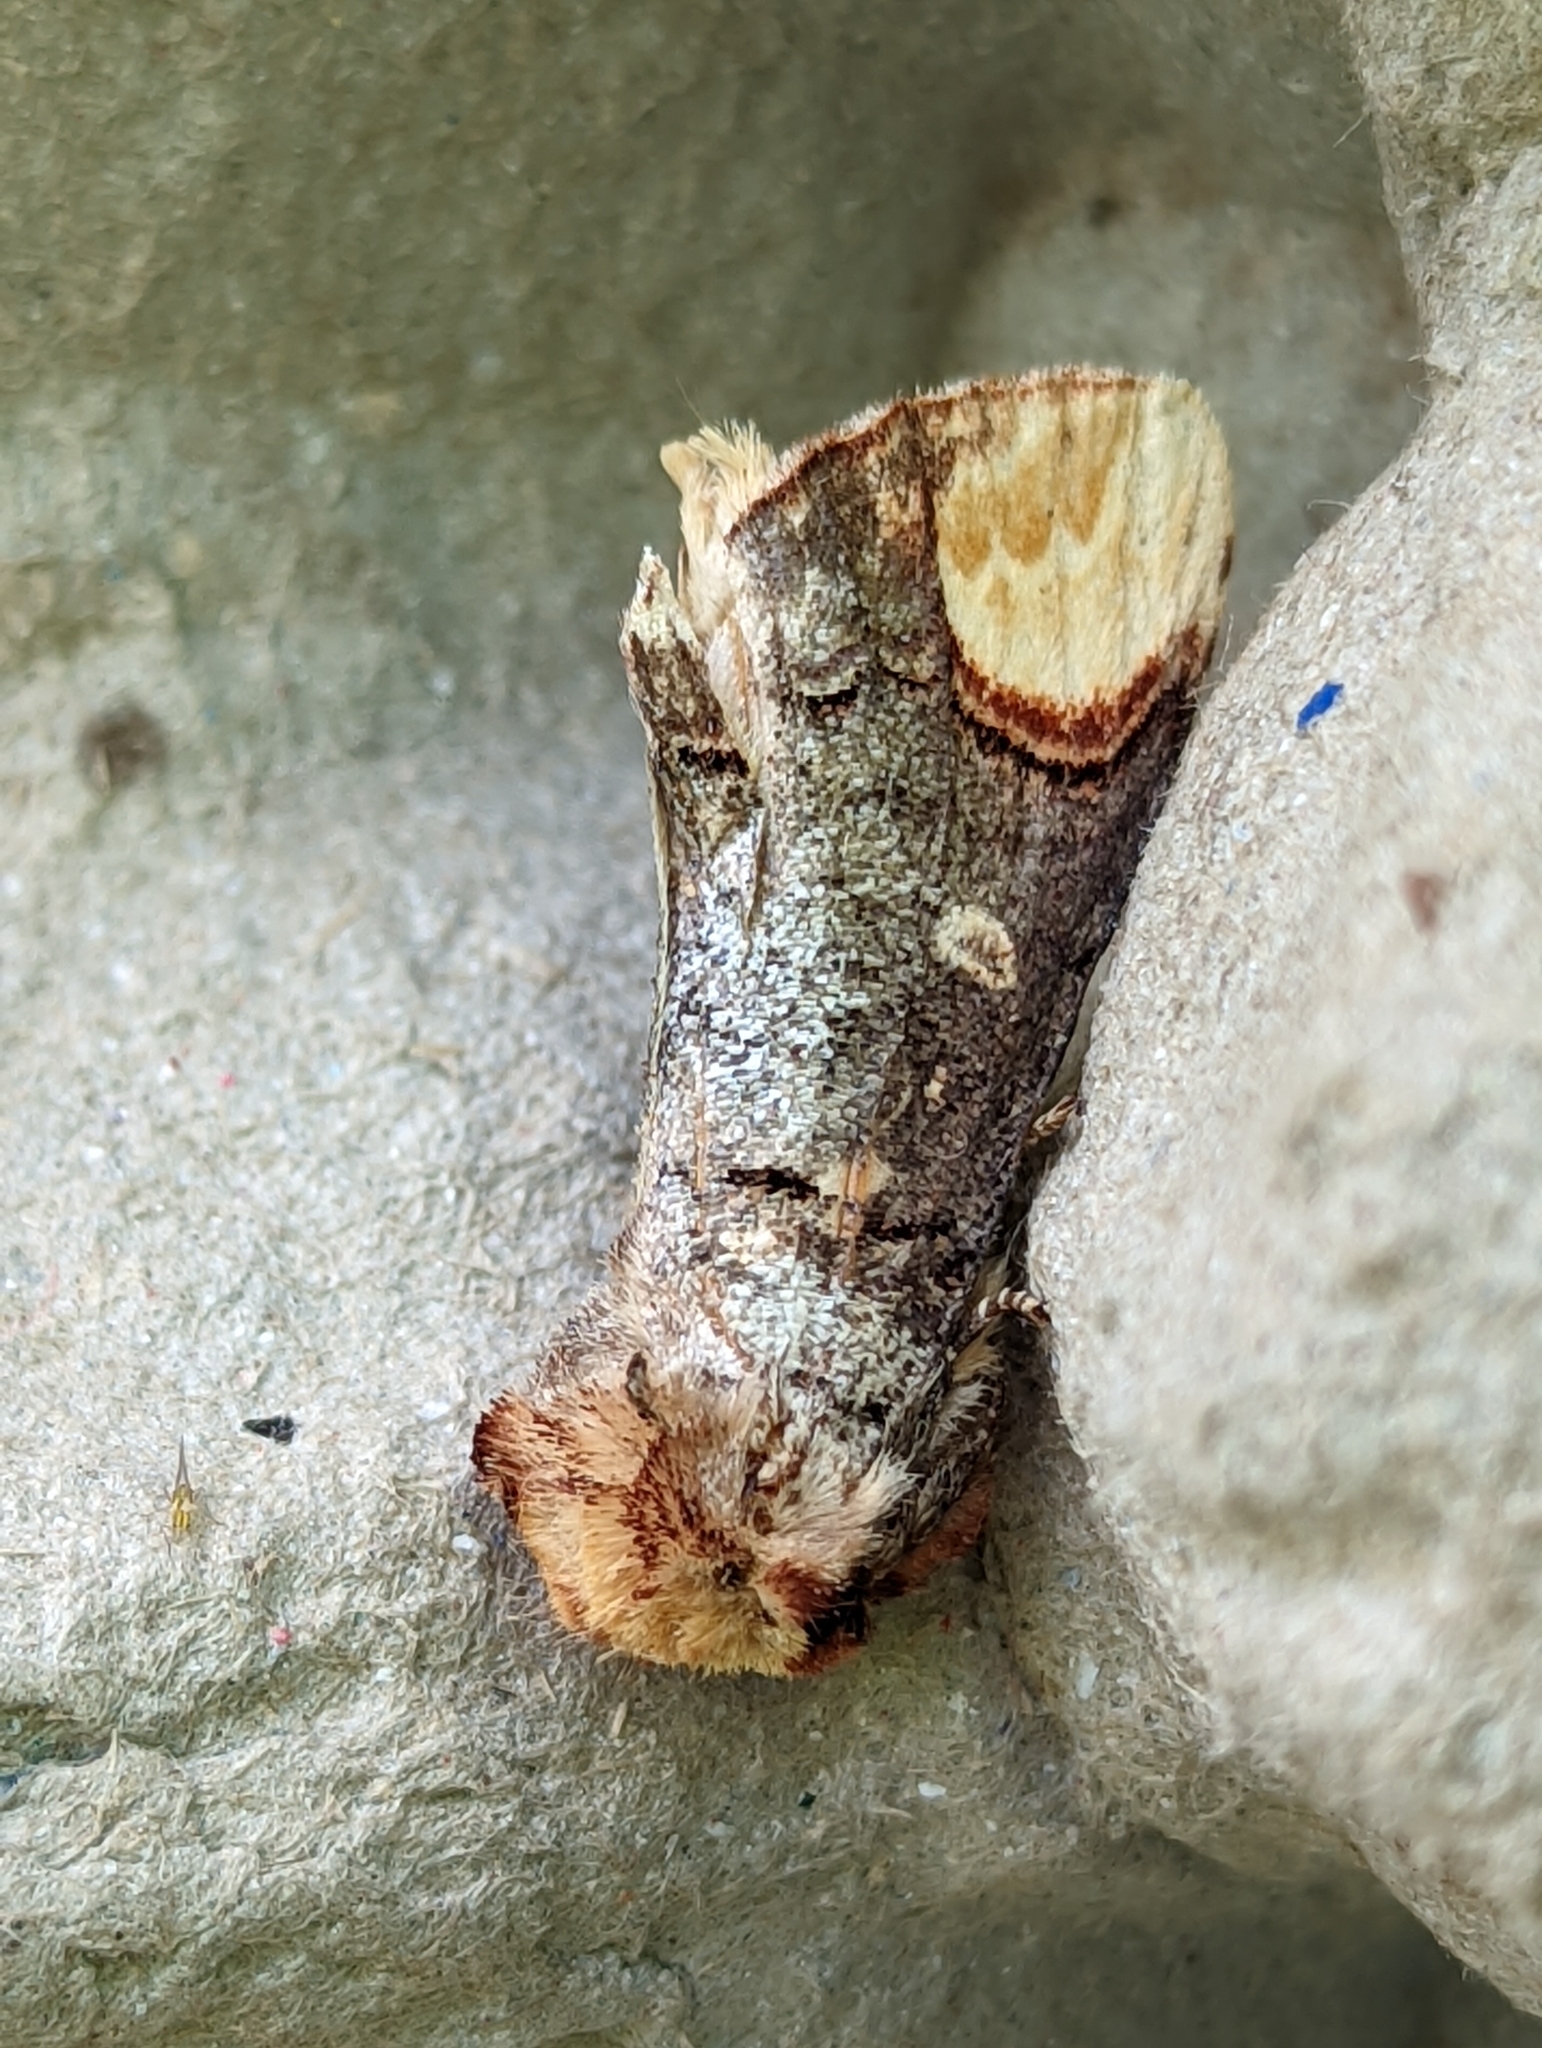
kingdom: Animalia
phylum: Arthropoda
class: Insecta
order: Lepidoptera
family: Notodontidae
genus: Phalera
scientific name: Phalera bucephala
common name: Buff-tip
